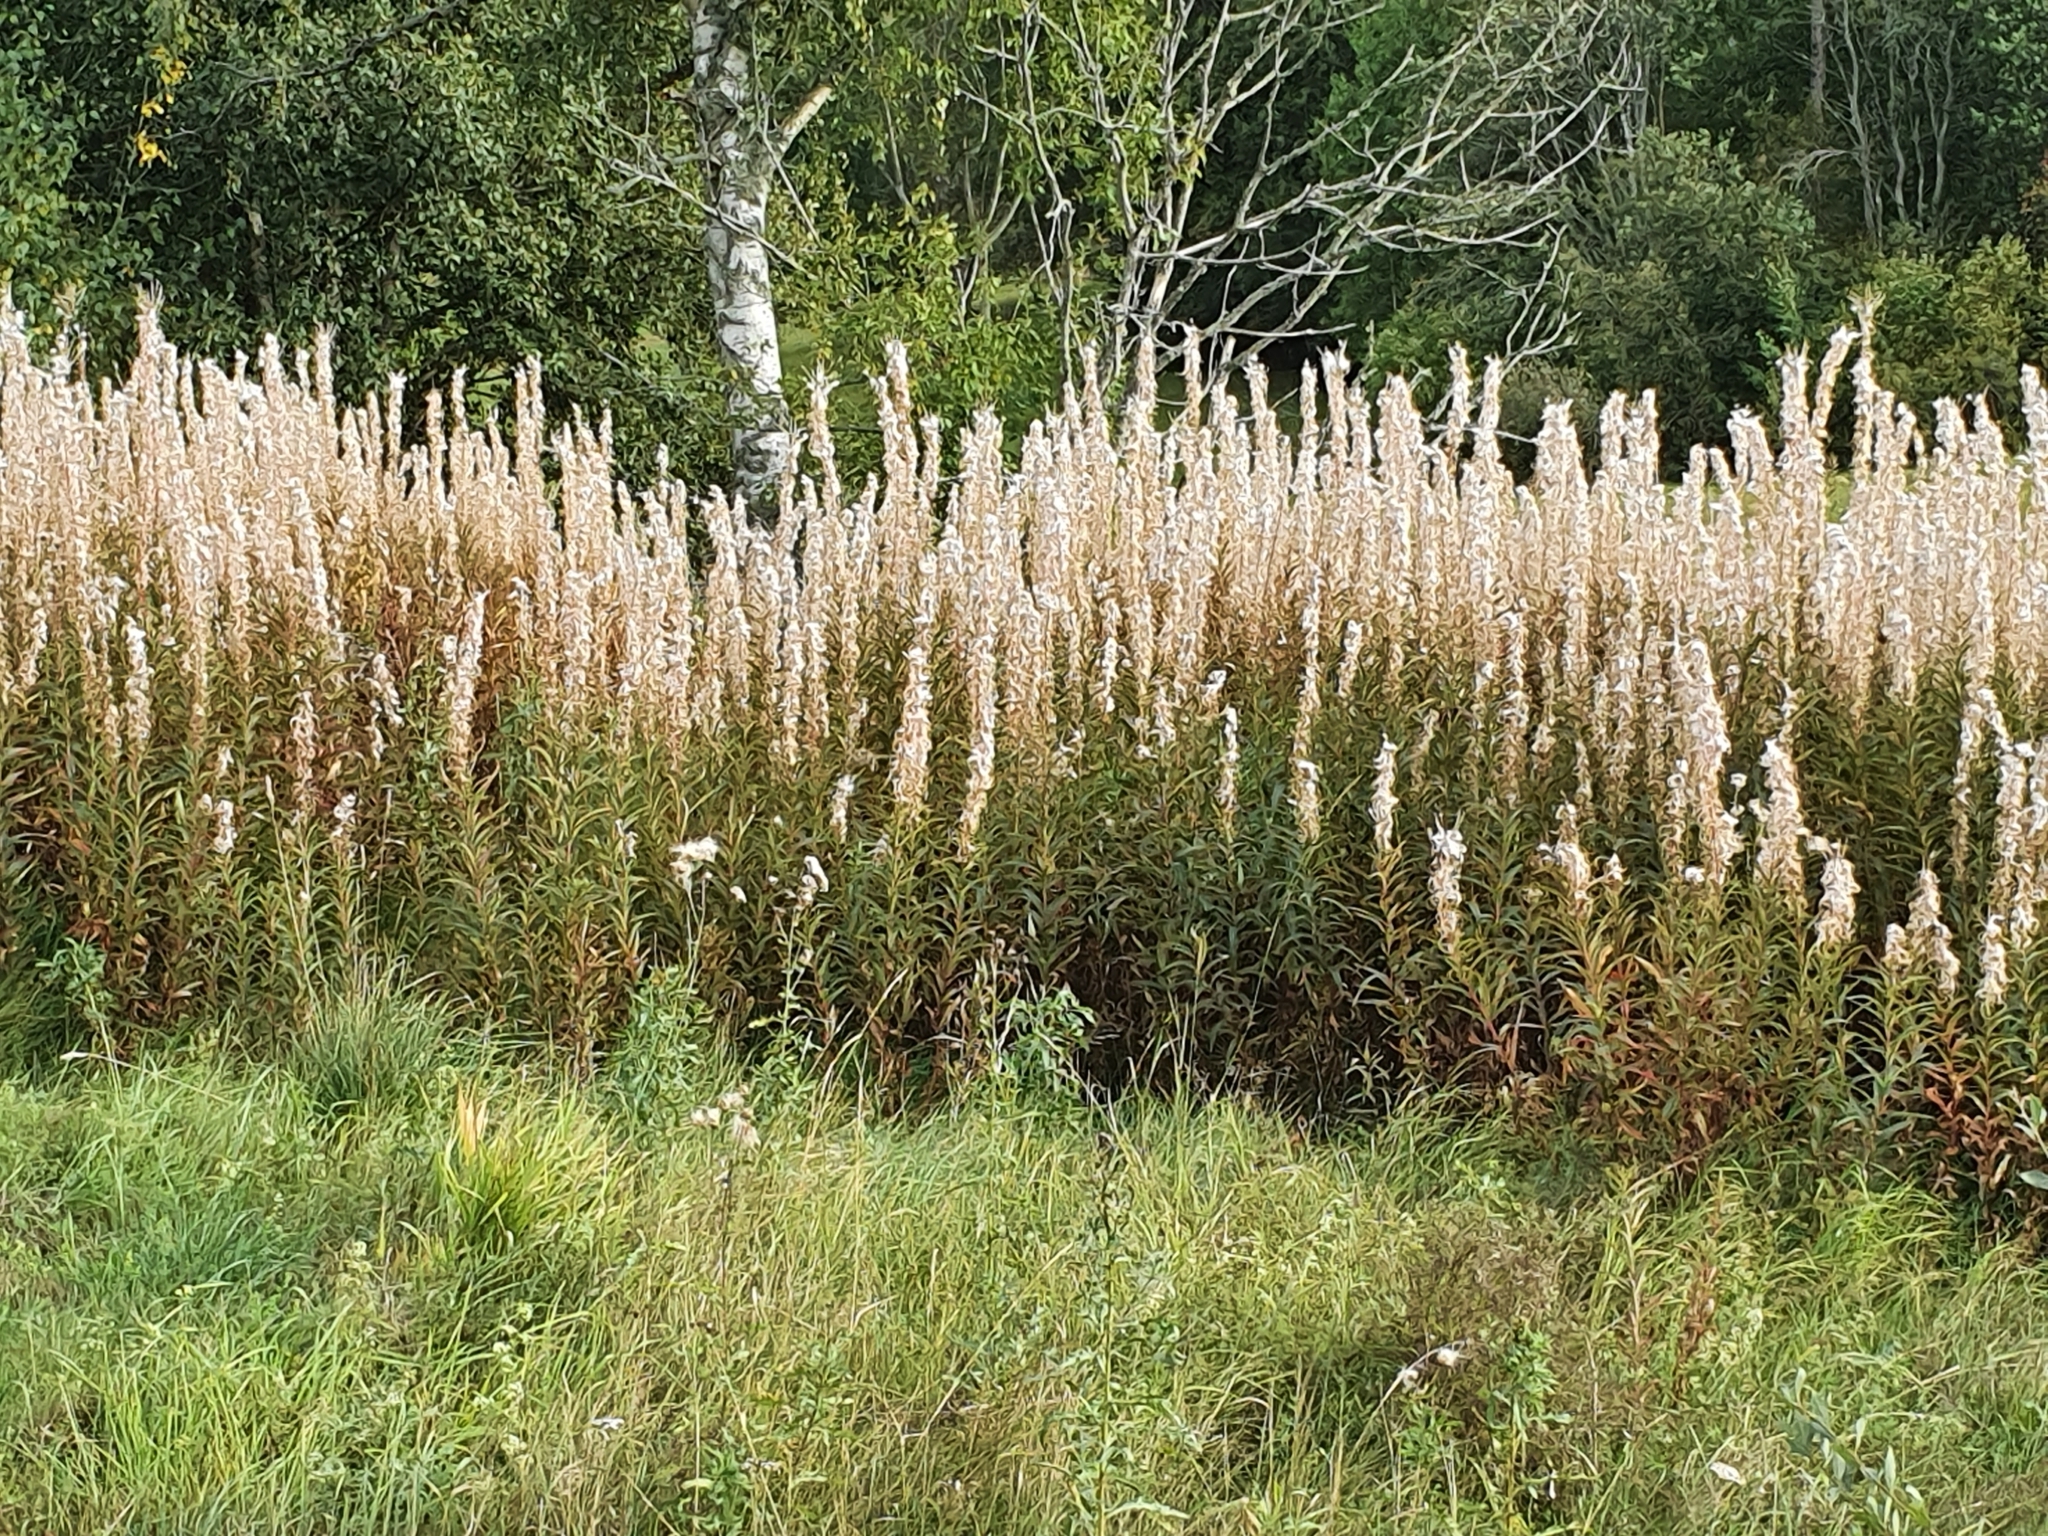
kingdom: Plantae
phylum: Tracheophyta
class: Magnoliopsida
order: Myrtales
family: Onagraceae
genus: Chamaenerion
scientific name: Chamaenerion angustifolium
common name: Fireweed
